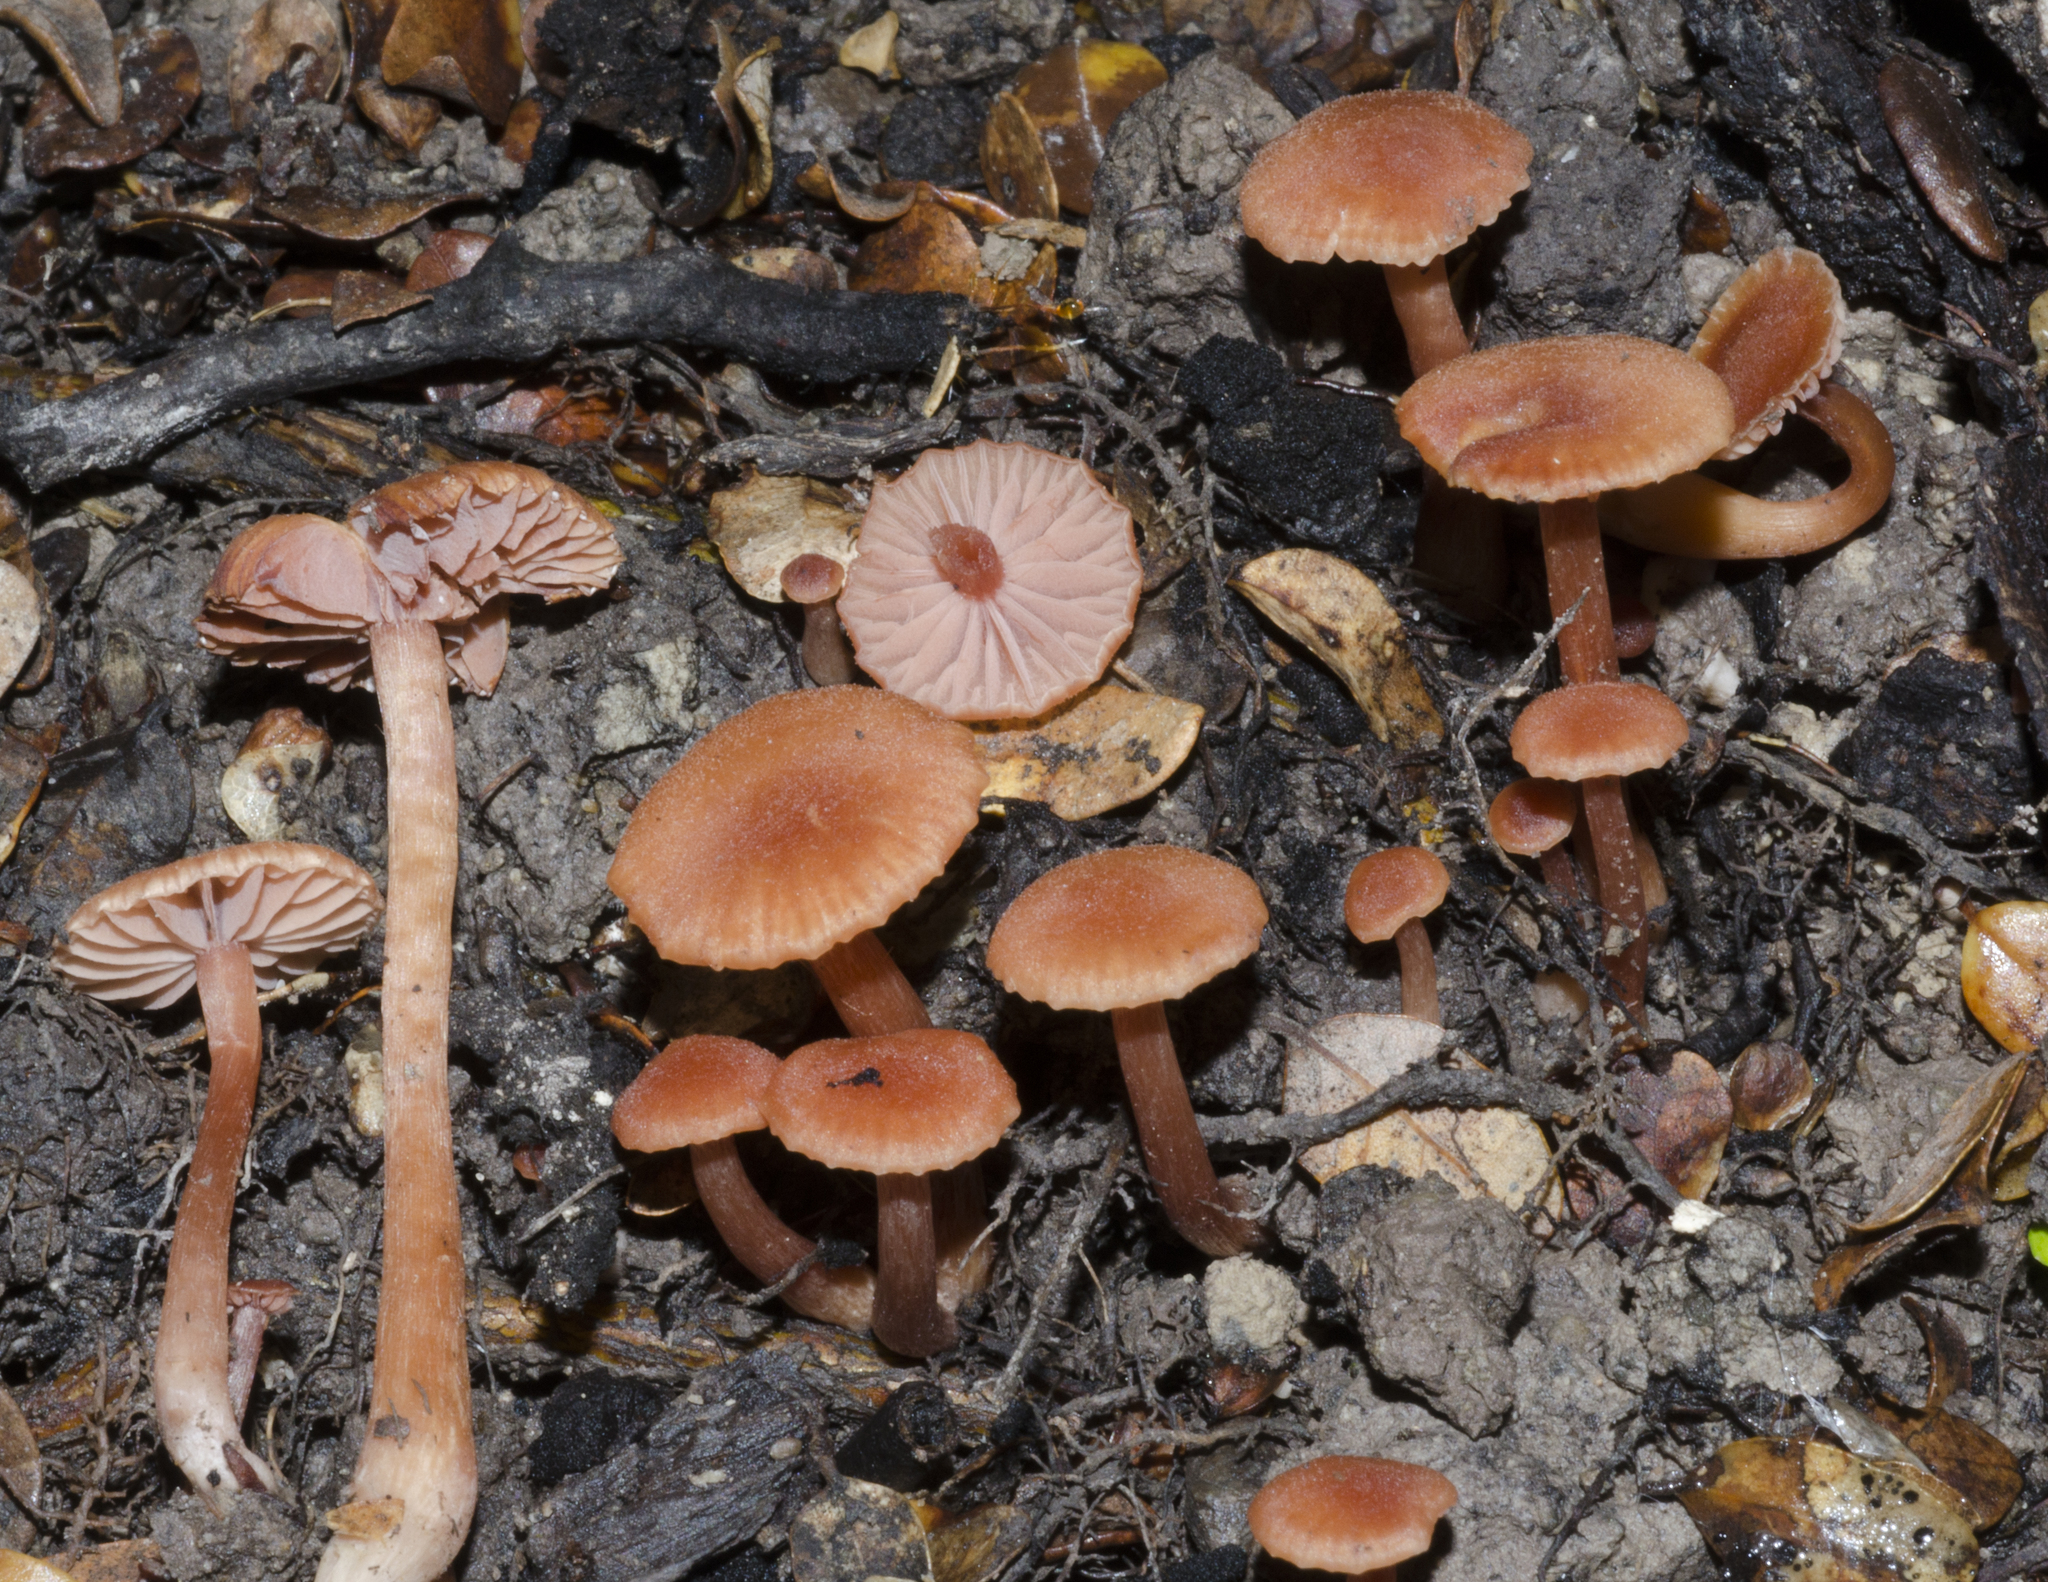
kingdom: Fungi
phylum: Basidiomycota
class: Agaricomycetes
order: Agaricales
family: Hydnangiaceae
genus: Laccaria
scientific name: Laccaria glabripes
